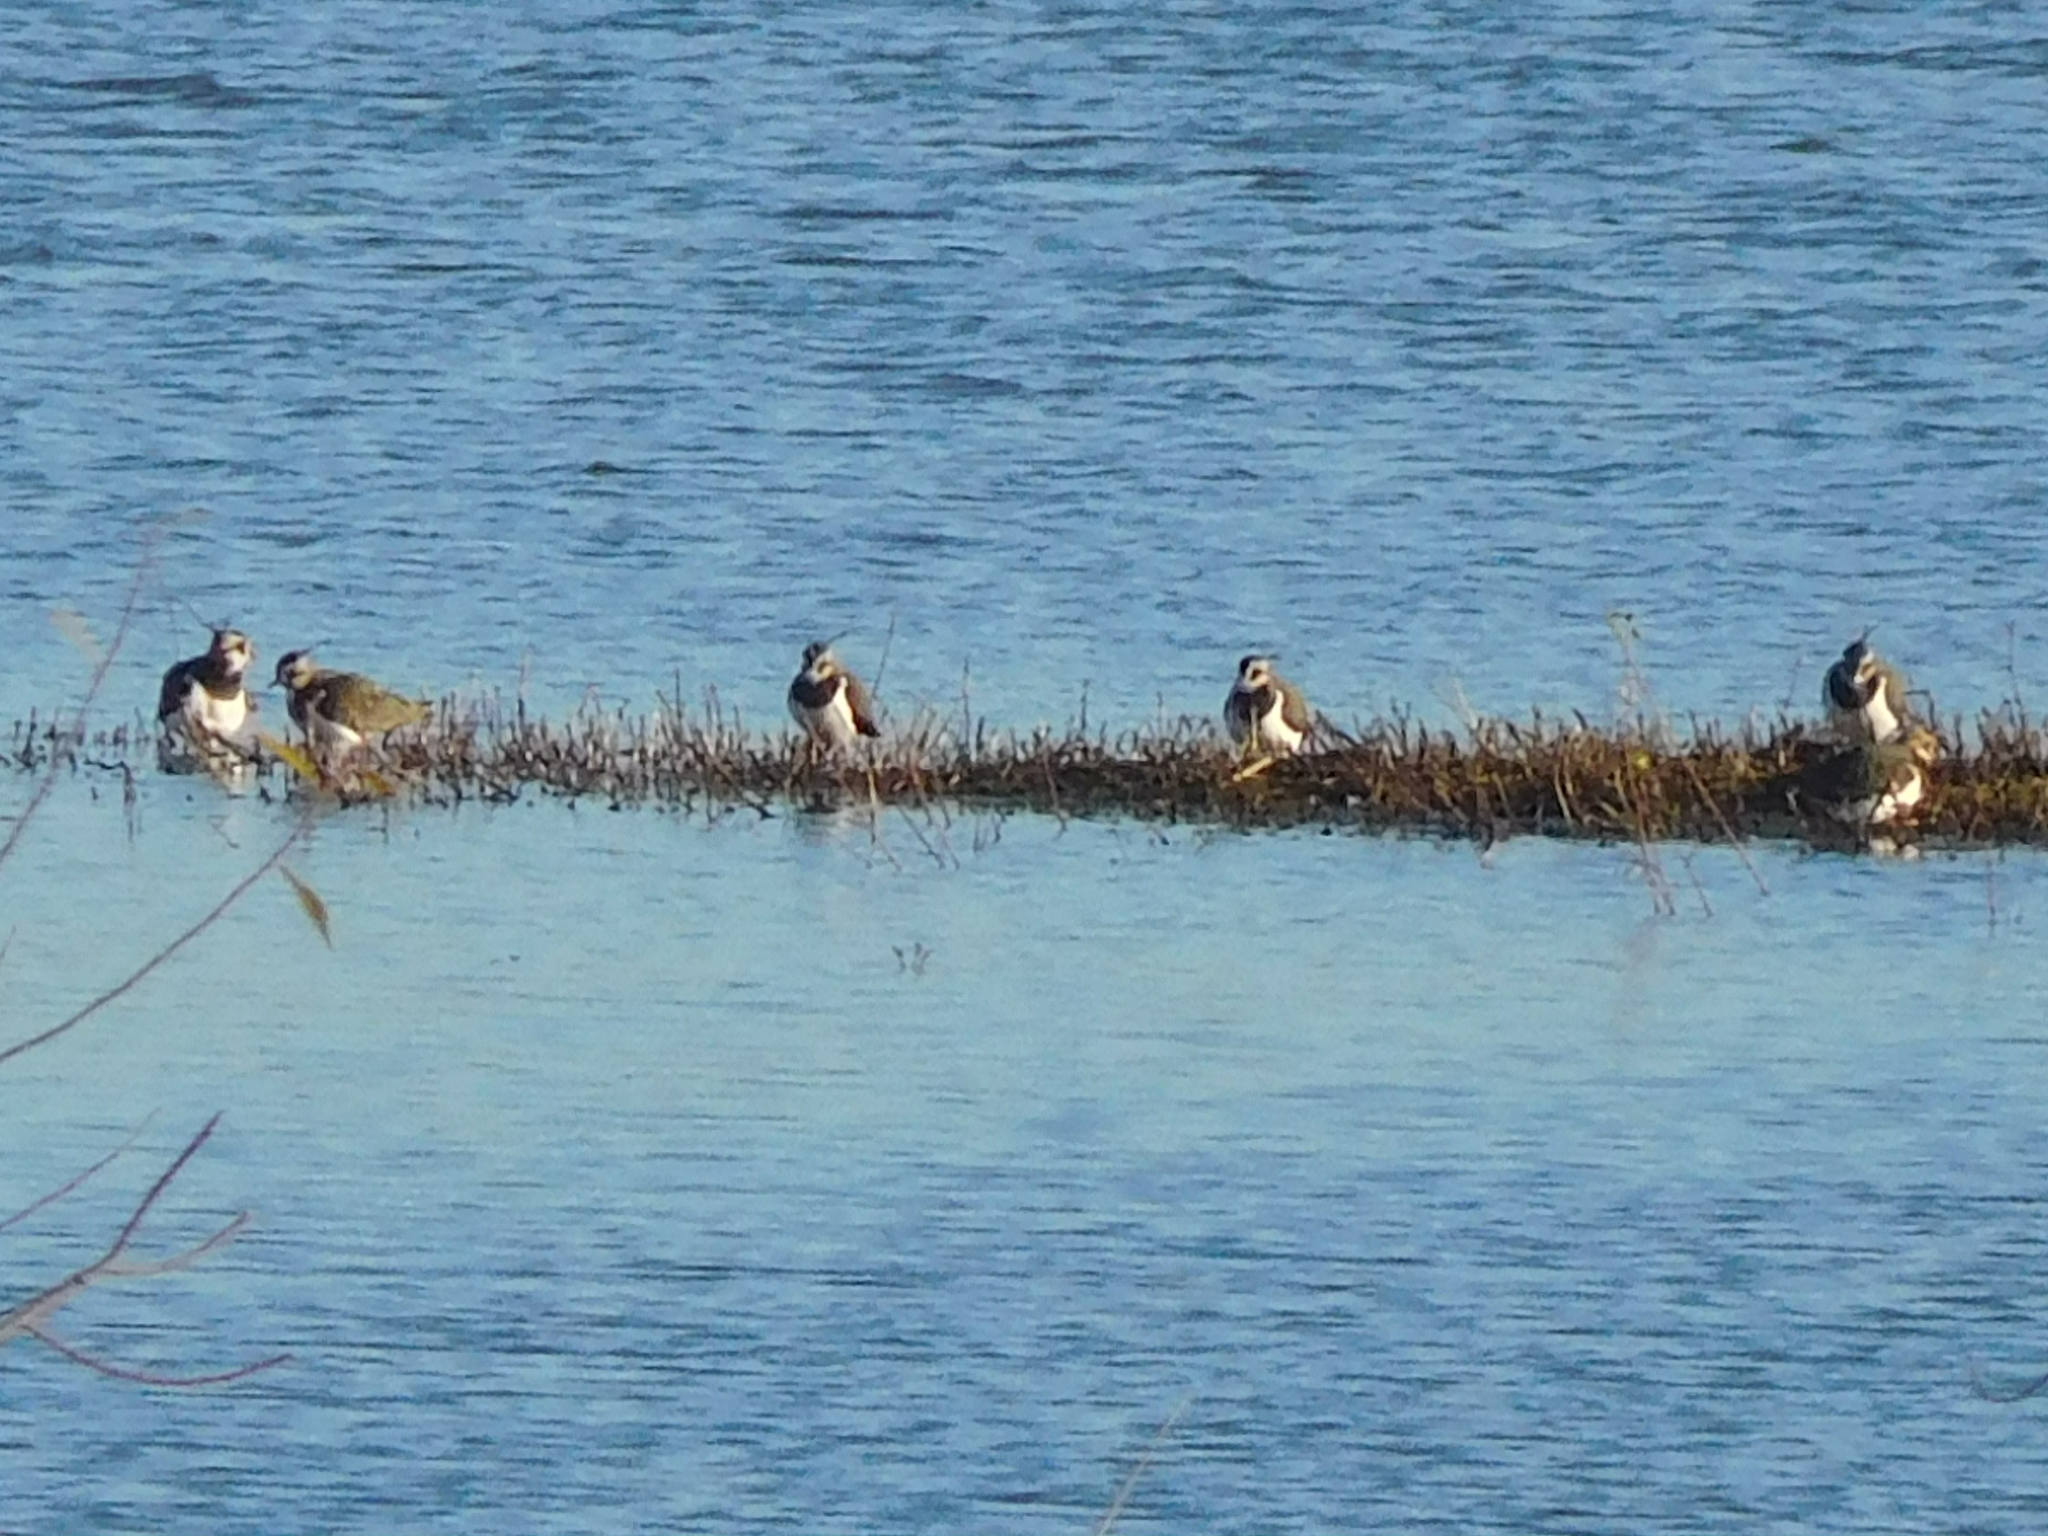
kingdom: Animalia
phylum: Chordata
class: Aves
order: Charadriiformes
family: Charadriidae
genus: Vanellus
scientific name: Vanellus vanellus
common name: Northern lapwing
